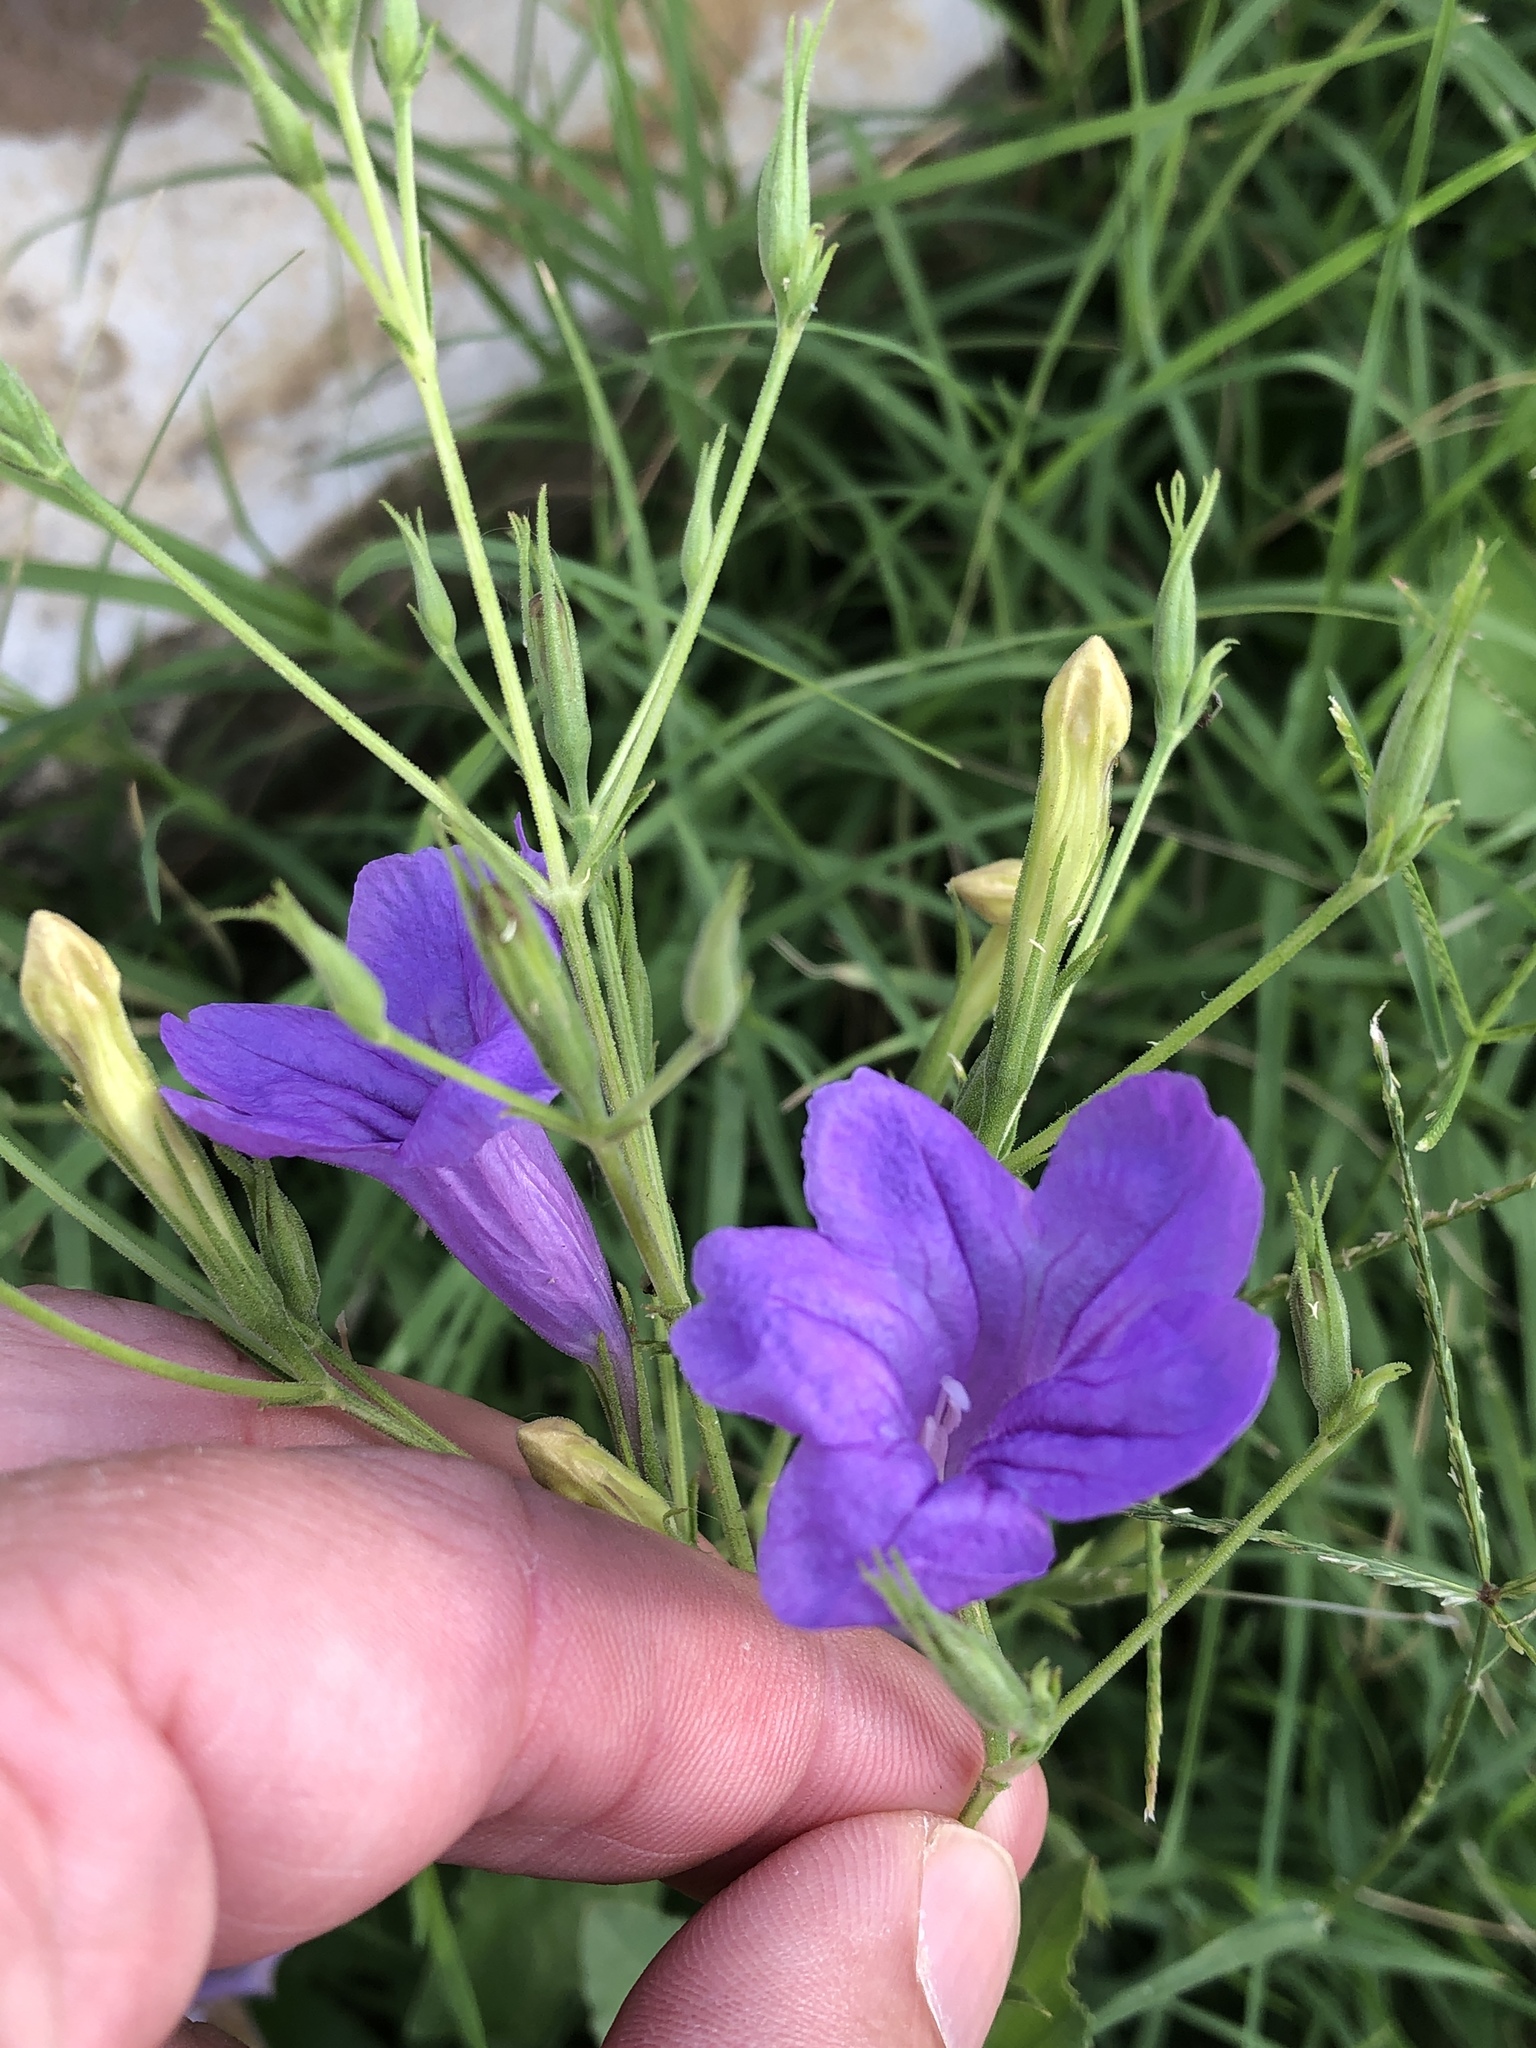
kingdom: Plantae
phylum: Tracheophyta
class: Magnoliopsida
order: Lamiales
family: Acanthaceae
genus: Ruellia
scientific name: Ruellia ciliatiflora
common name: Hairyflower wild petunia
